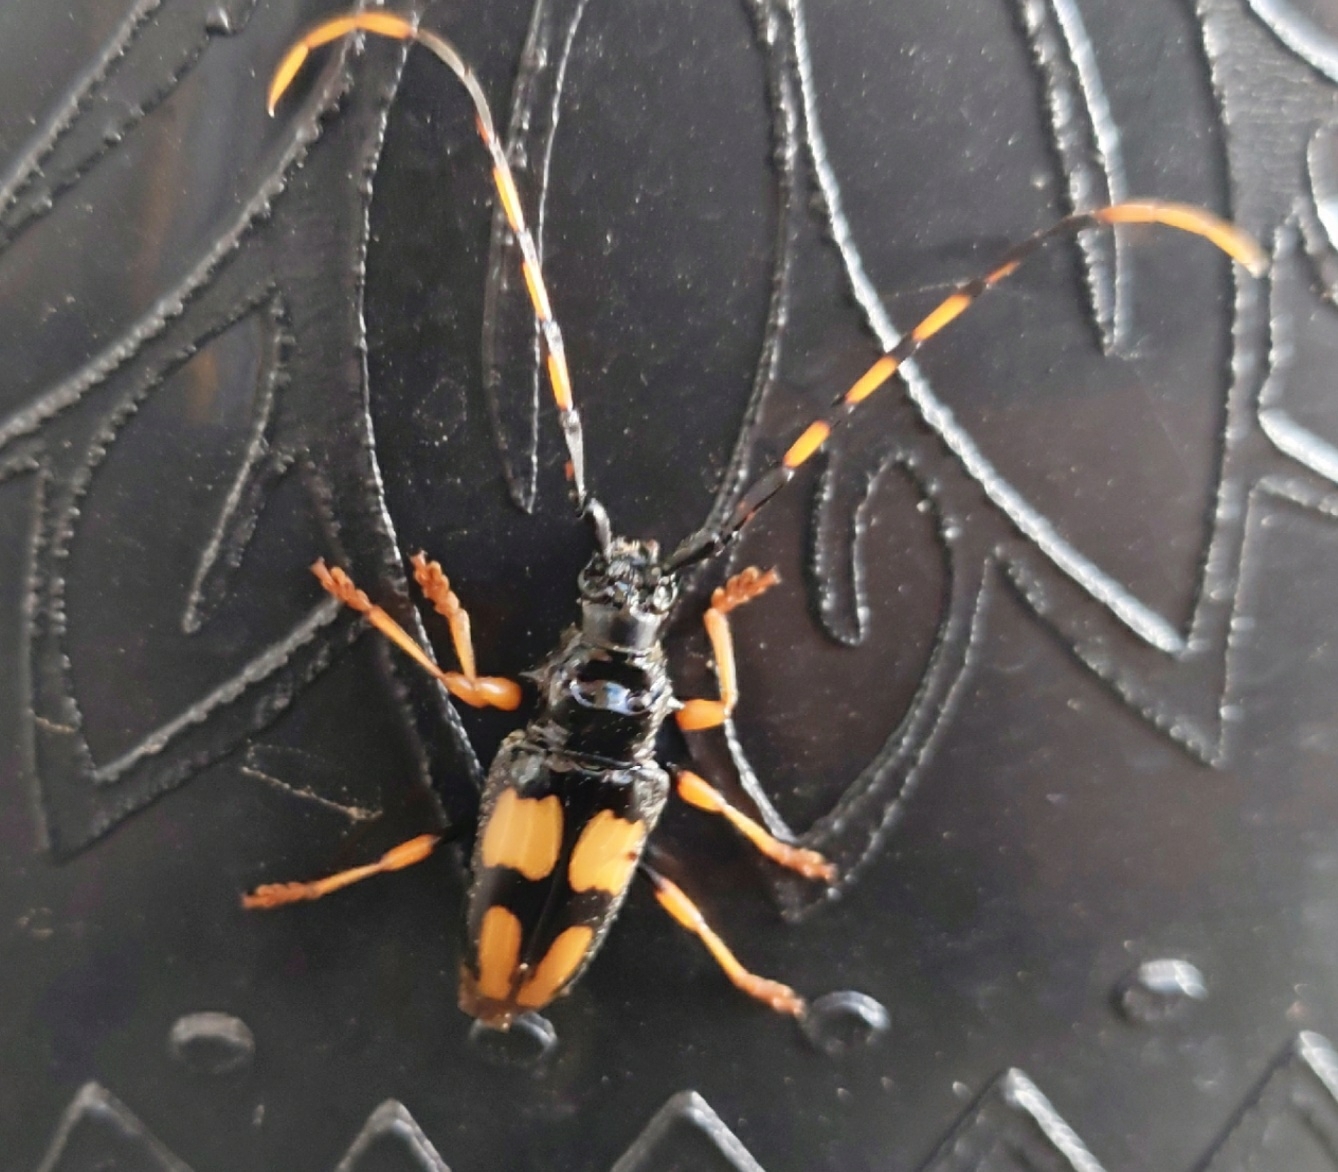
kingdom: Animalia
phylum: Arthropoda
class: Insecta
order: Coleoptera
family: Cerambycidae
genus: Trachyderes
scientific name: Trachyderes mandibularis
